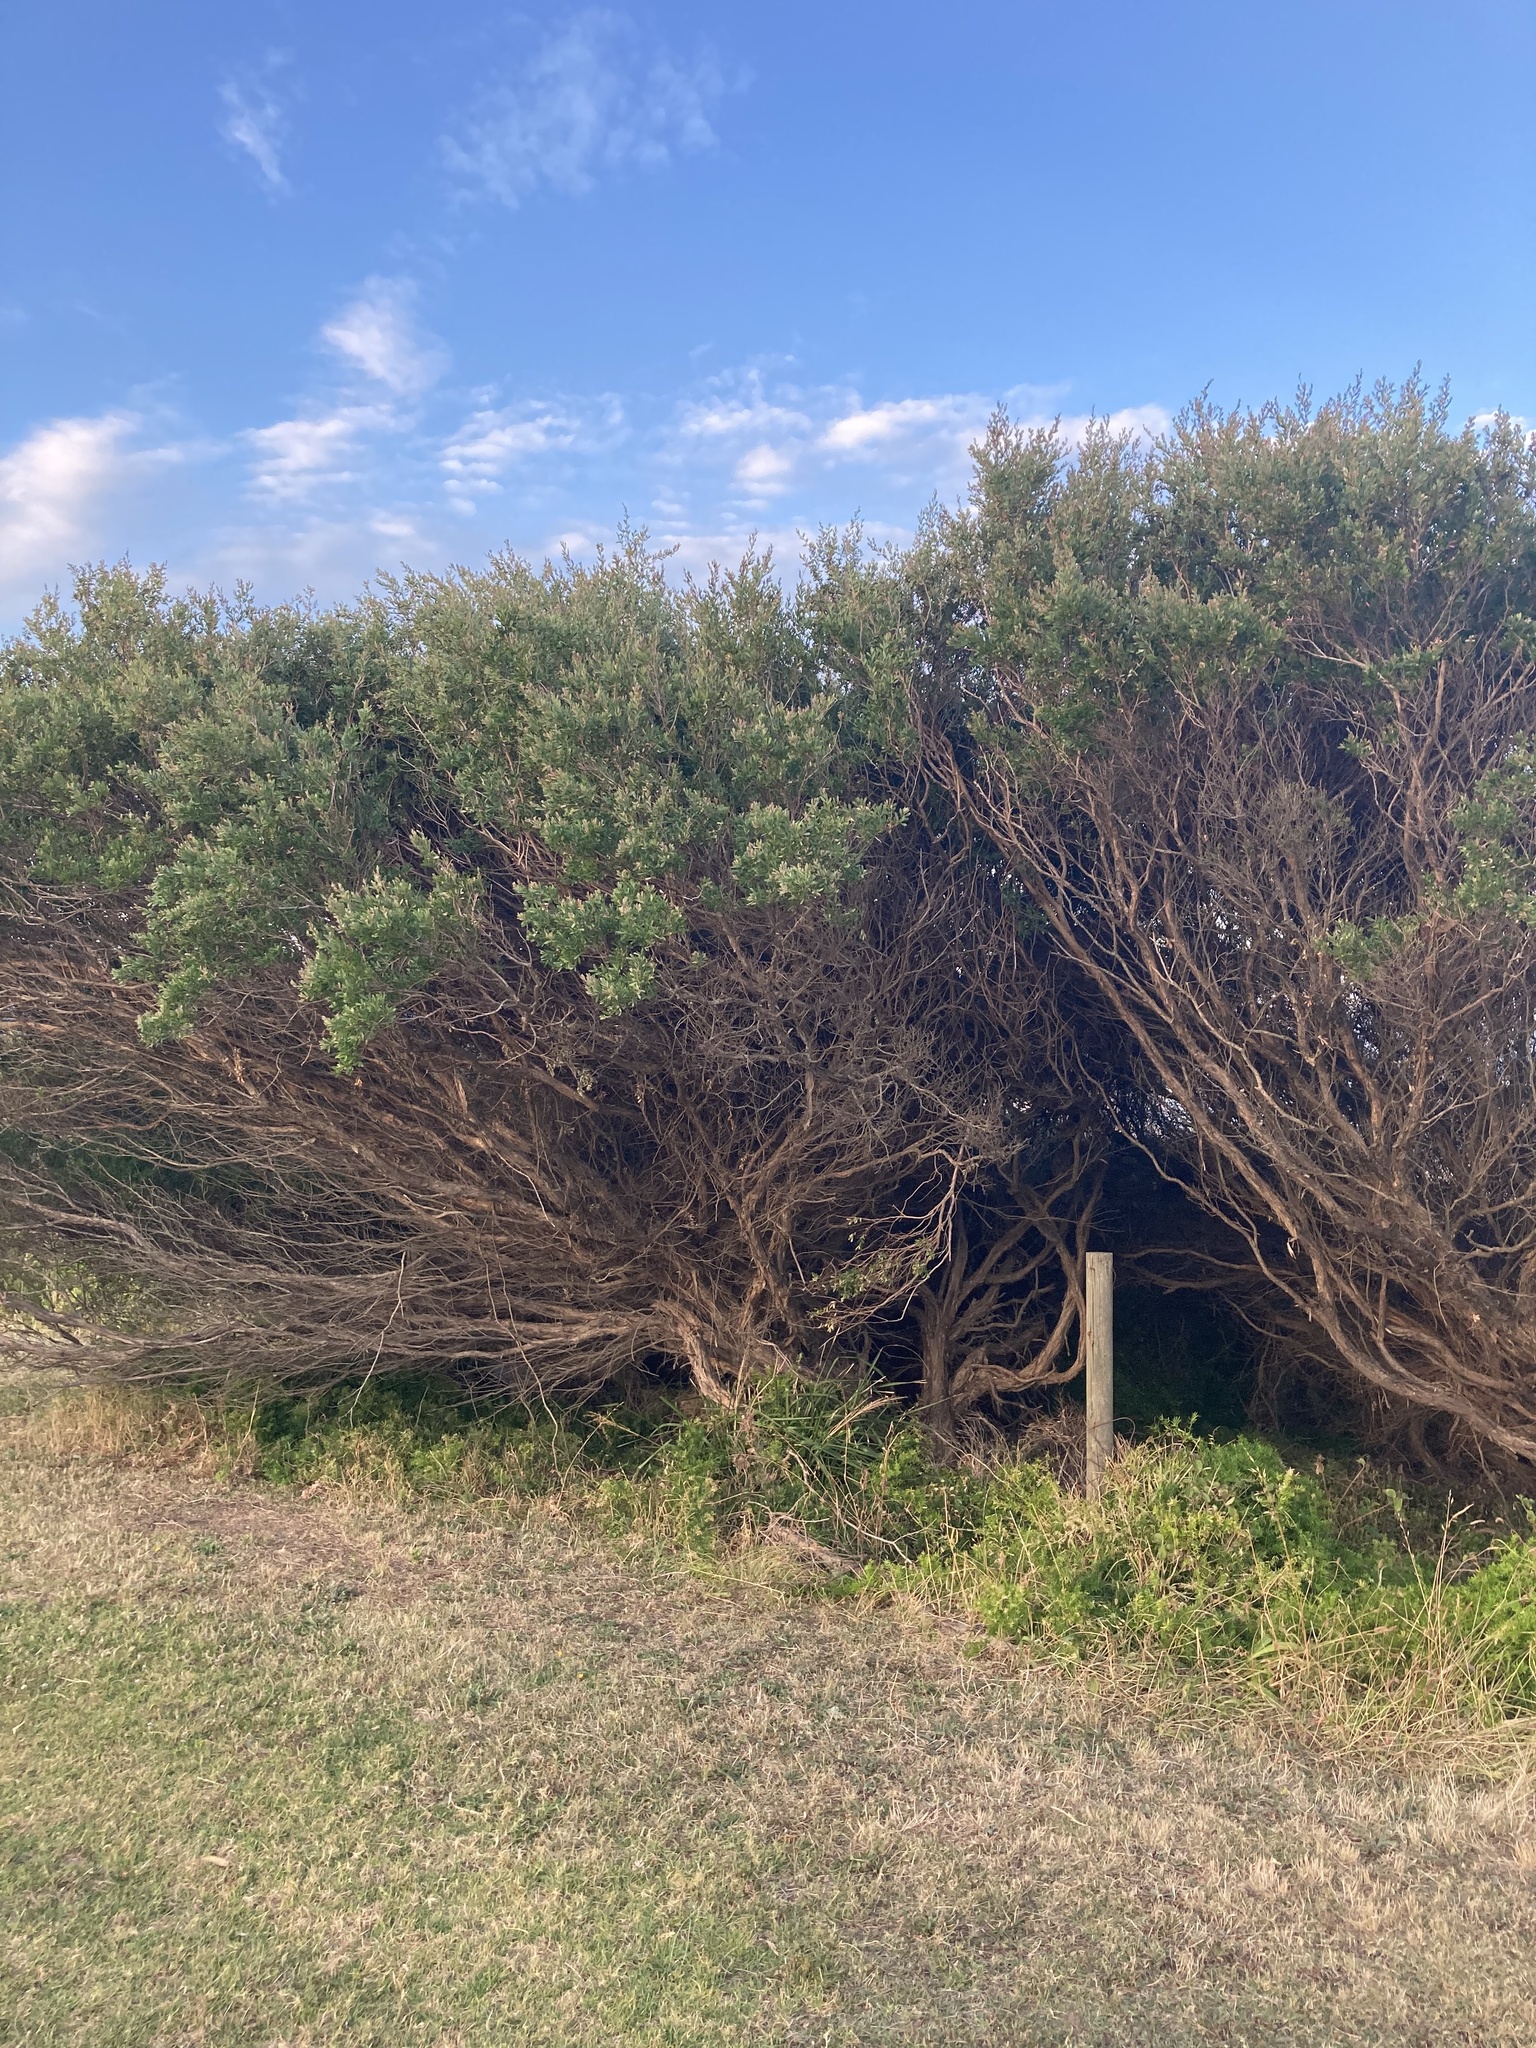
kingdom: Plantae
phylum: Tracheophyta
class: Magnoliopsida
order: Myrtales
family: Myrtaceae
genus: Leptospermum
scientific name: Leptospermum laevigatum
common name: Australian teatree
